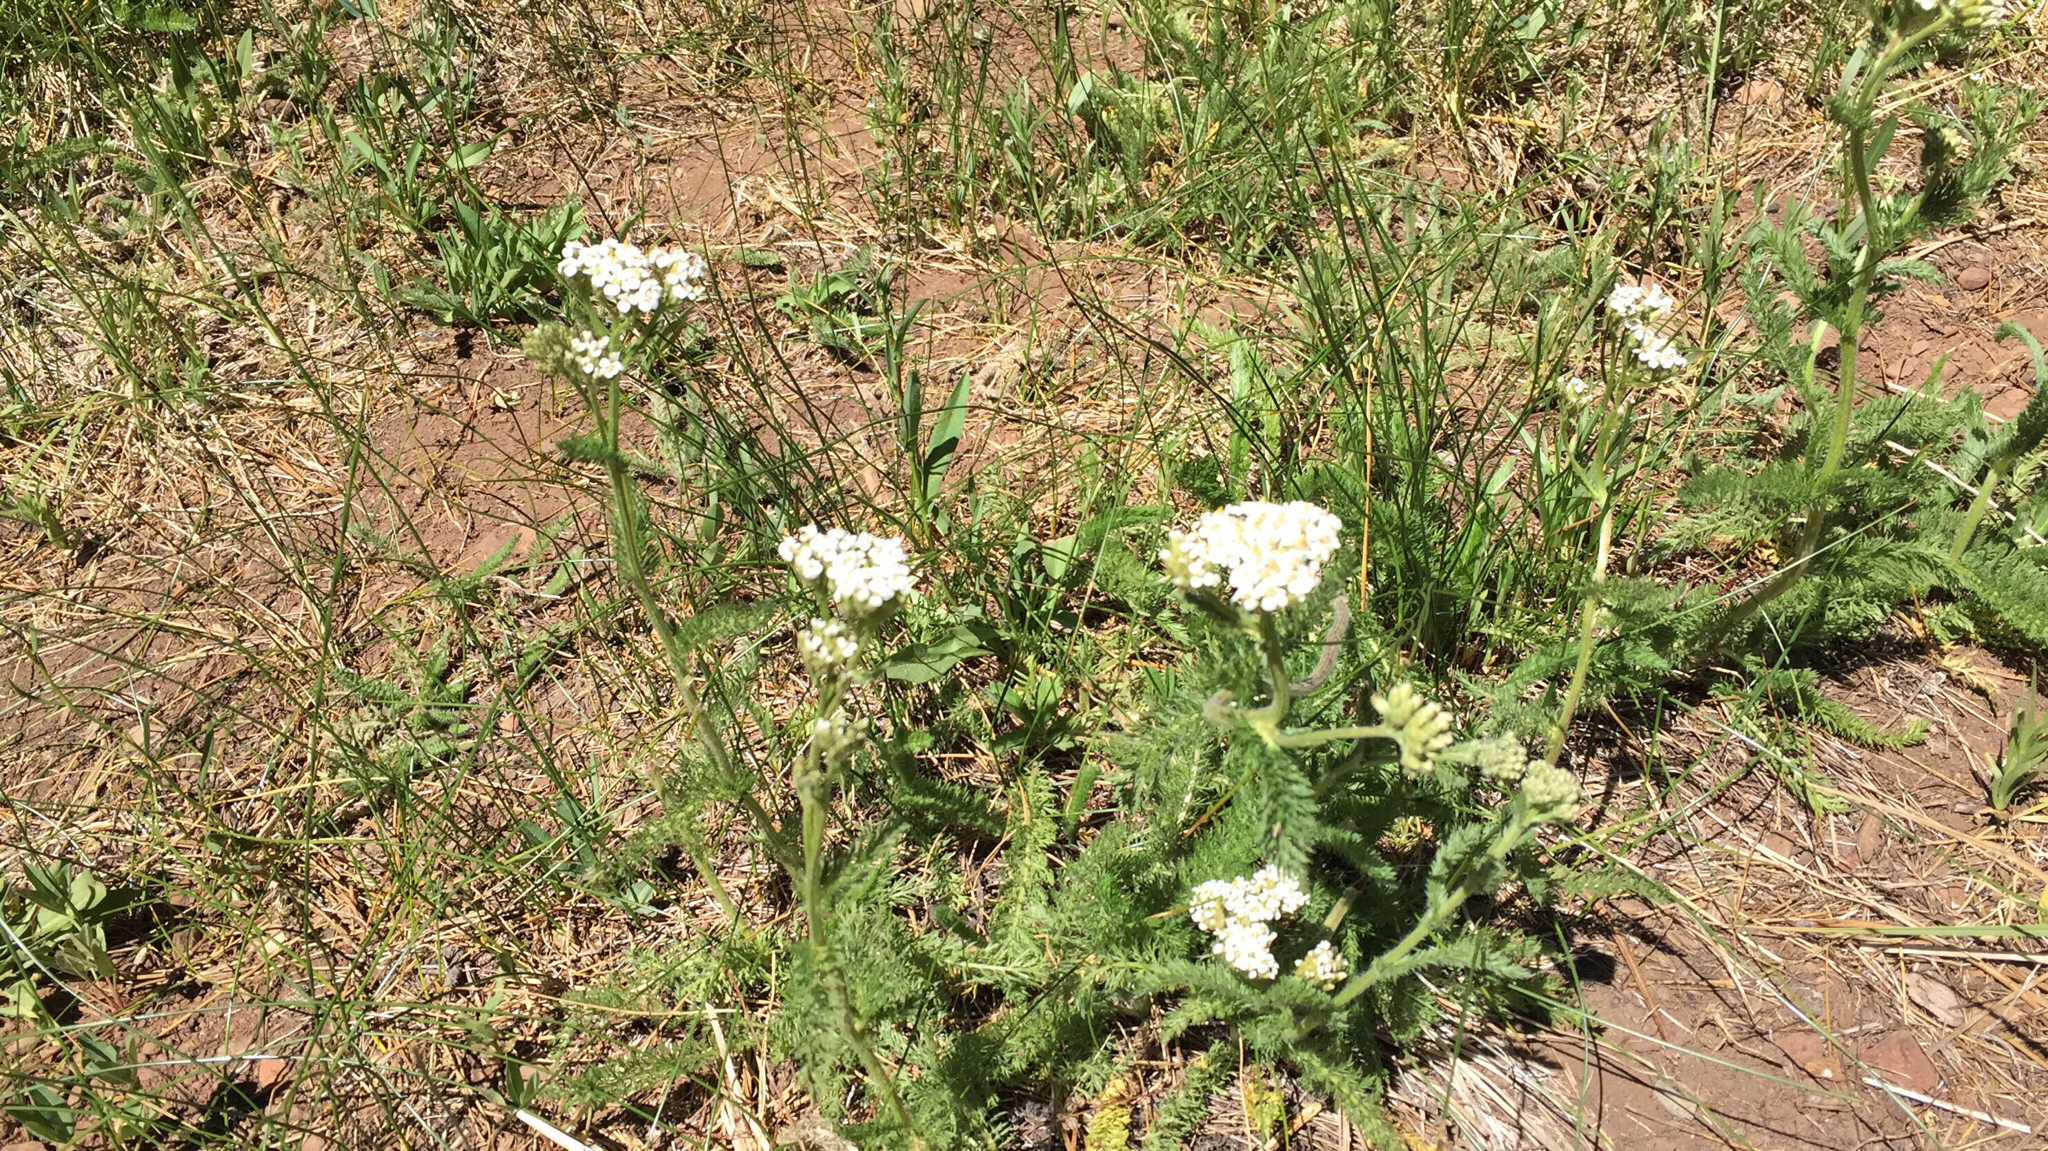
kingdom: Plantae
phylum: Tracheophyta
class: Magnoliopsida
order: Asterales
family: Asteraceae
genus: Achillea
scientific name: Achillea millefolium
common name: Yarrow
